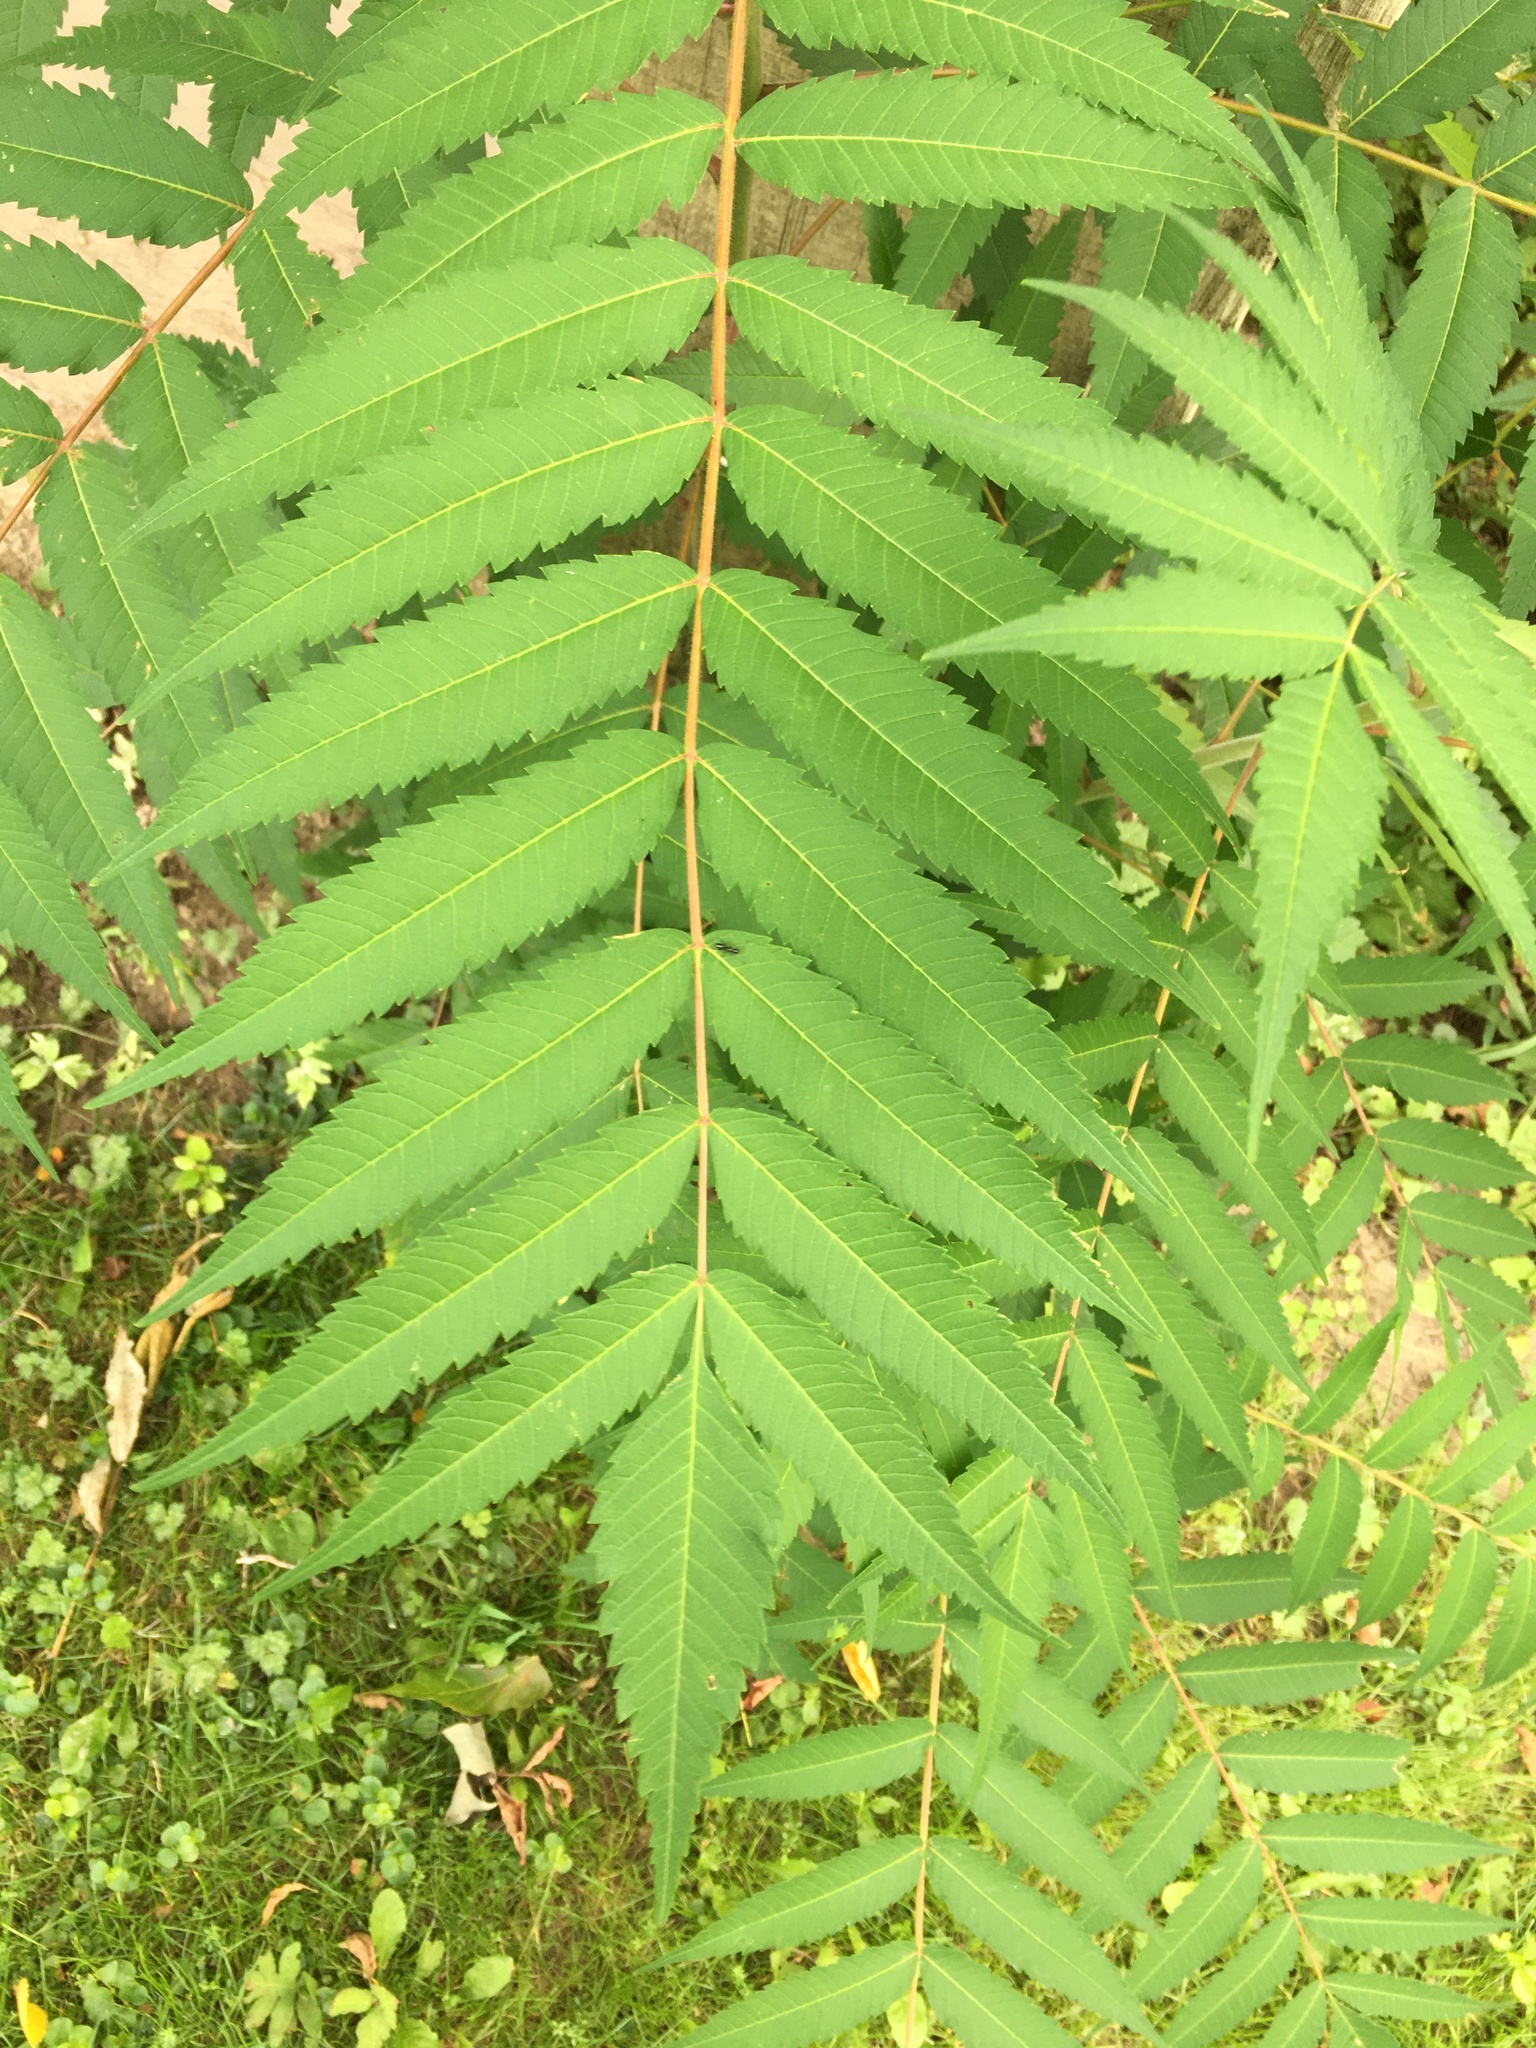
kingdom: Plantae
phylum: Tracheophyta
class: Magnoliopsida
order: Sapindales
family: Anacardiaceae
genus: Rhus
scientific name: Rhus typhina
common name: Staghorn sumac
